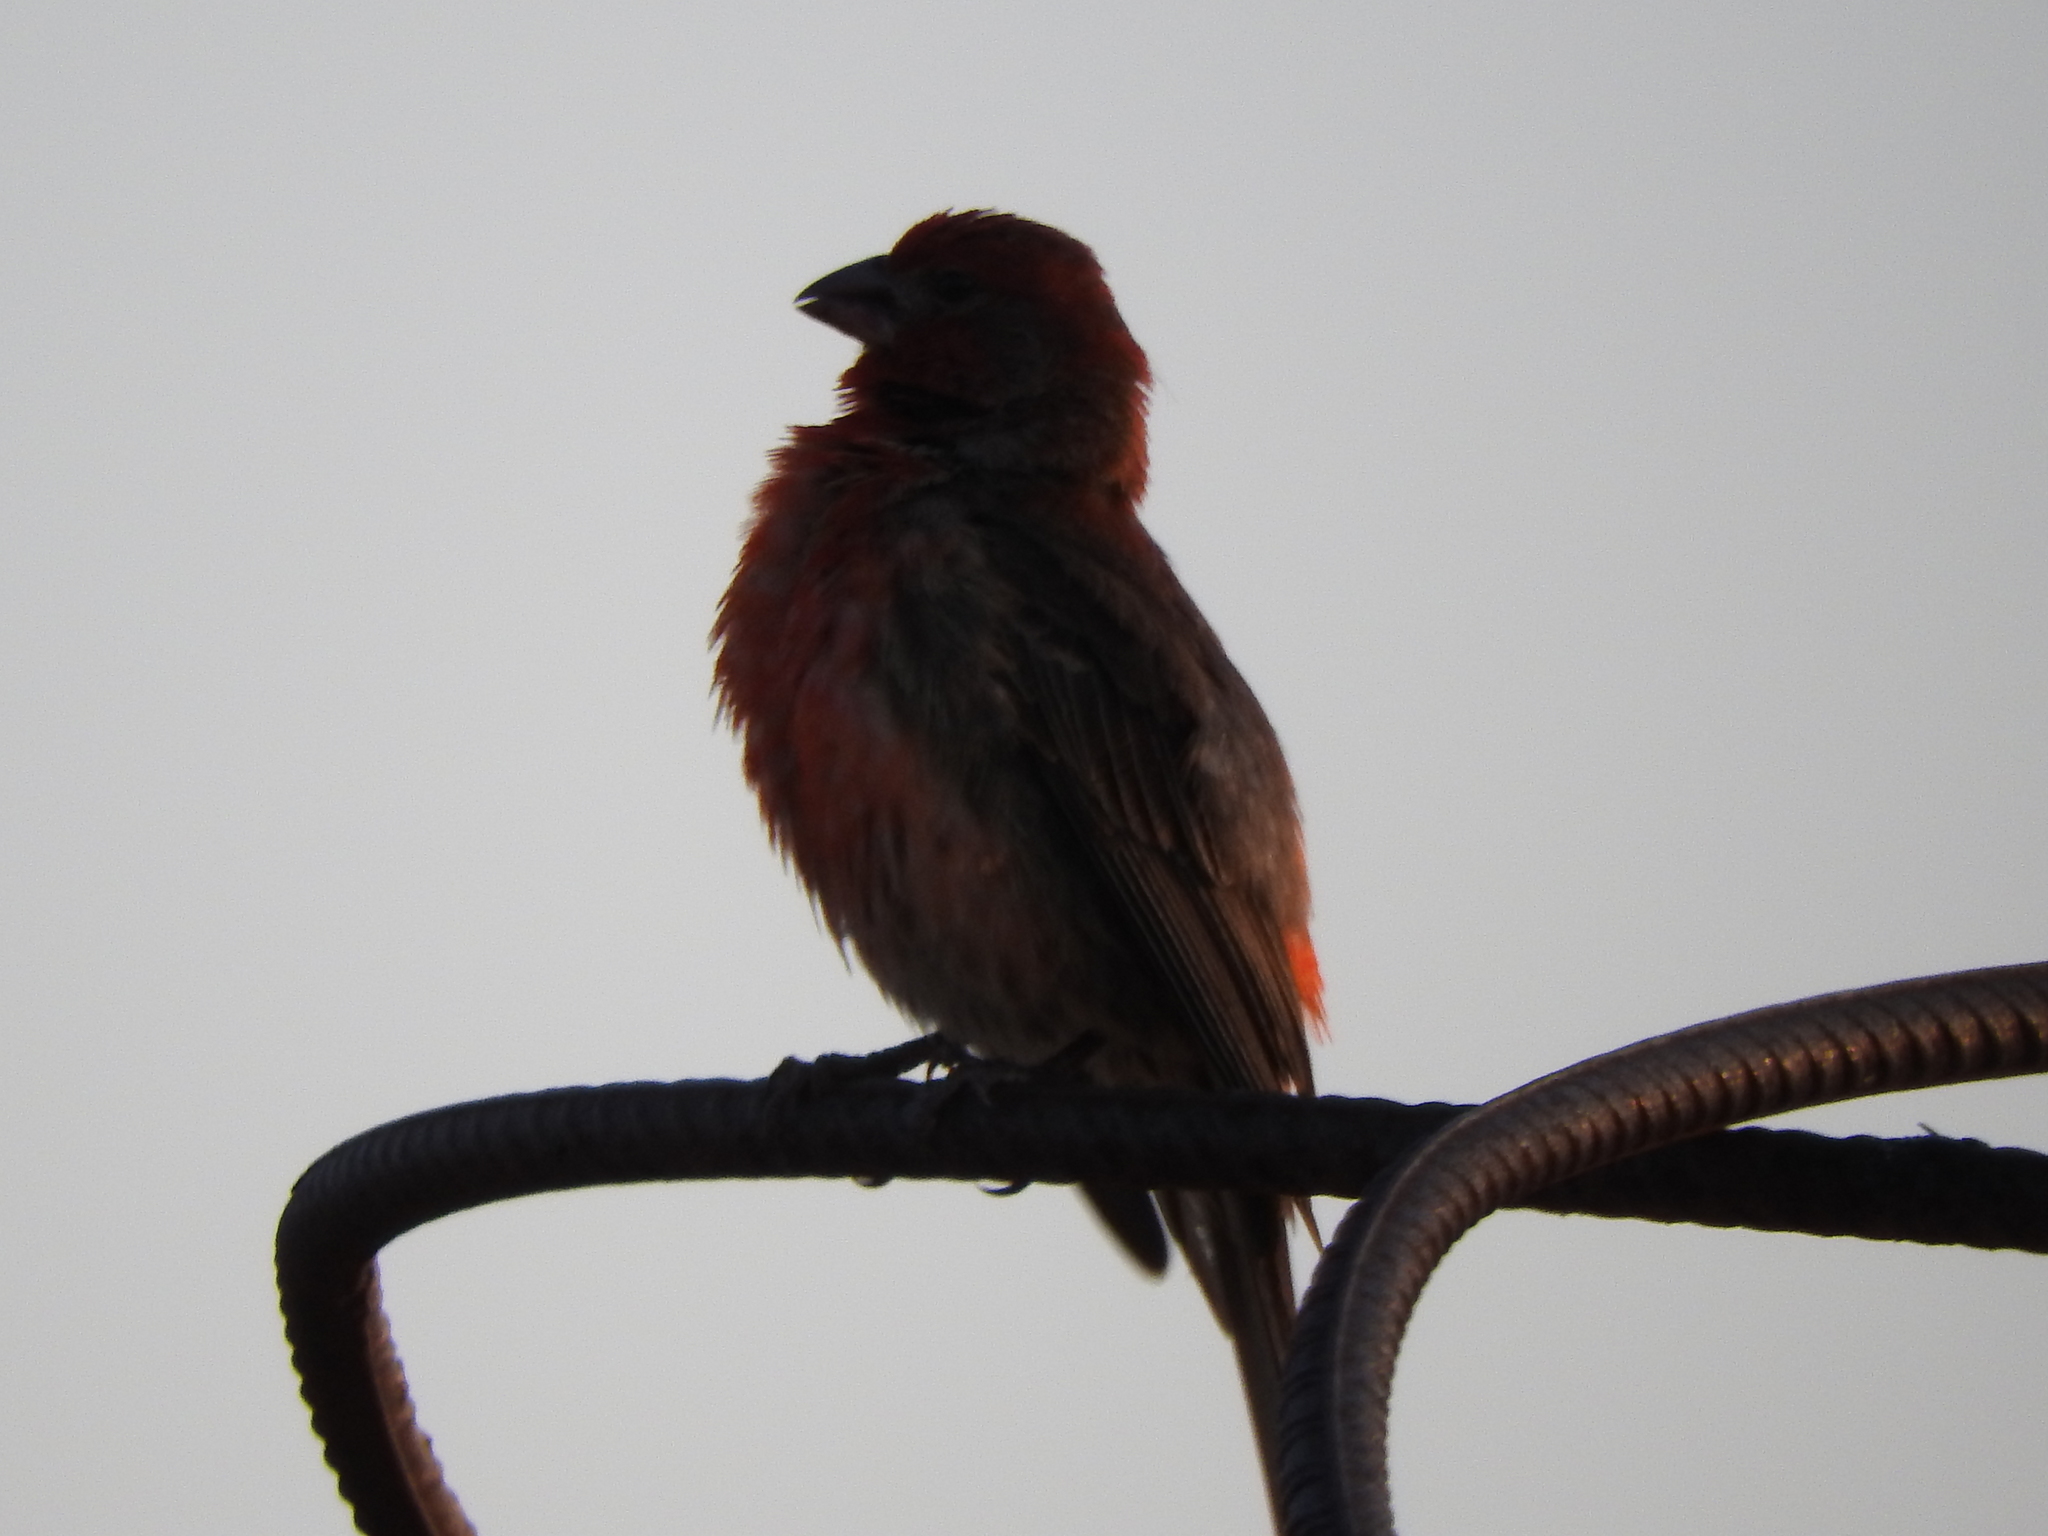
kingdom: Animalia
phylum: Chordata
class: Aves
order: Passeriformes
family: Fringillidae
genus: Haemorhous
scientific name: Haemorhous mexicanus
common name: House finch
